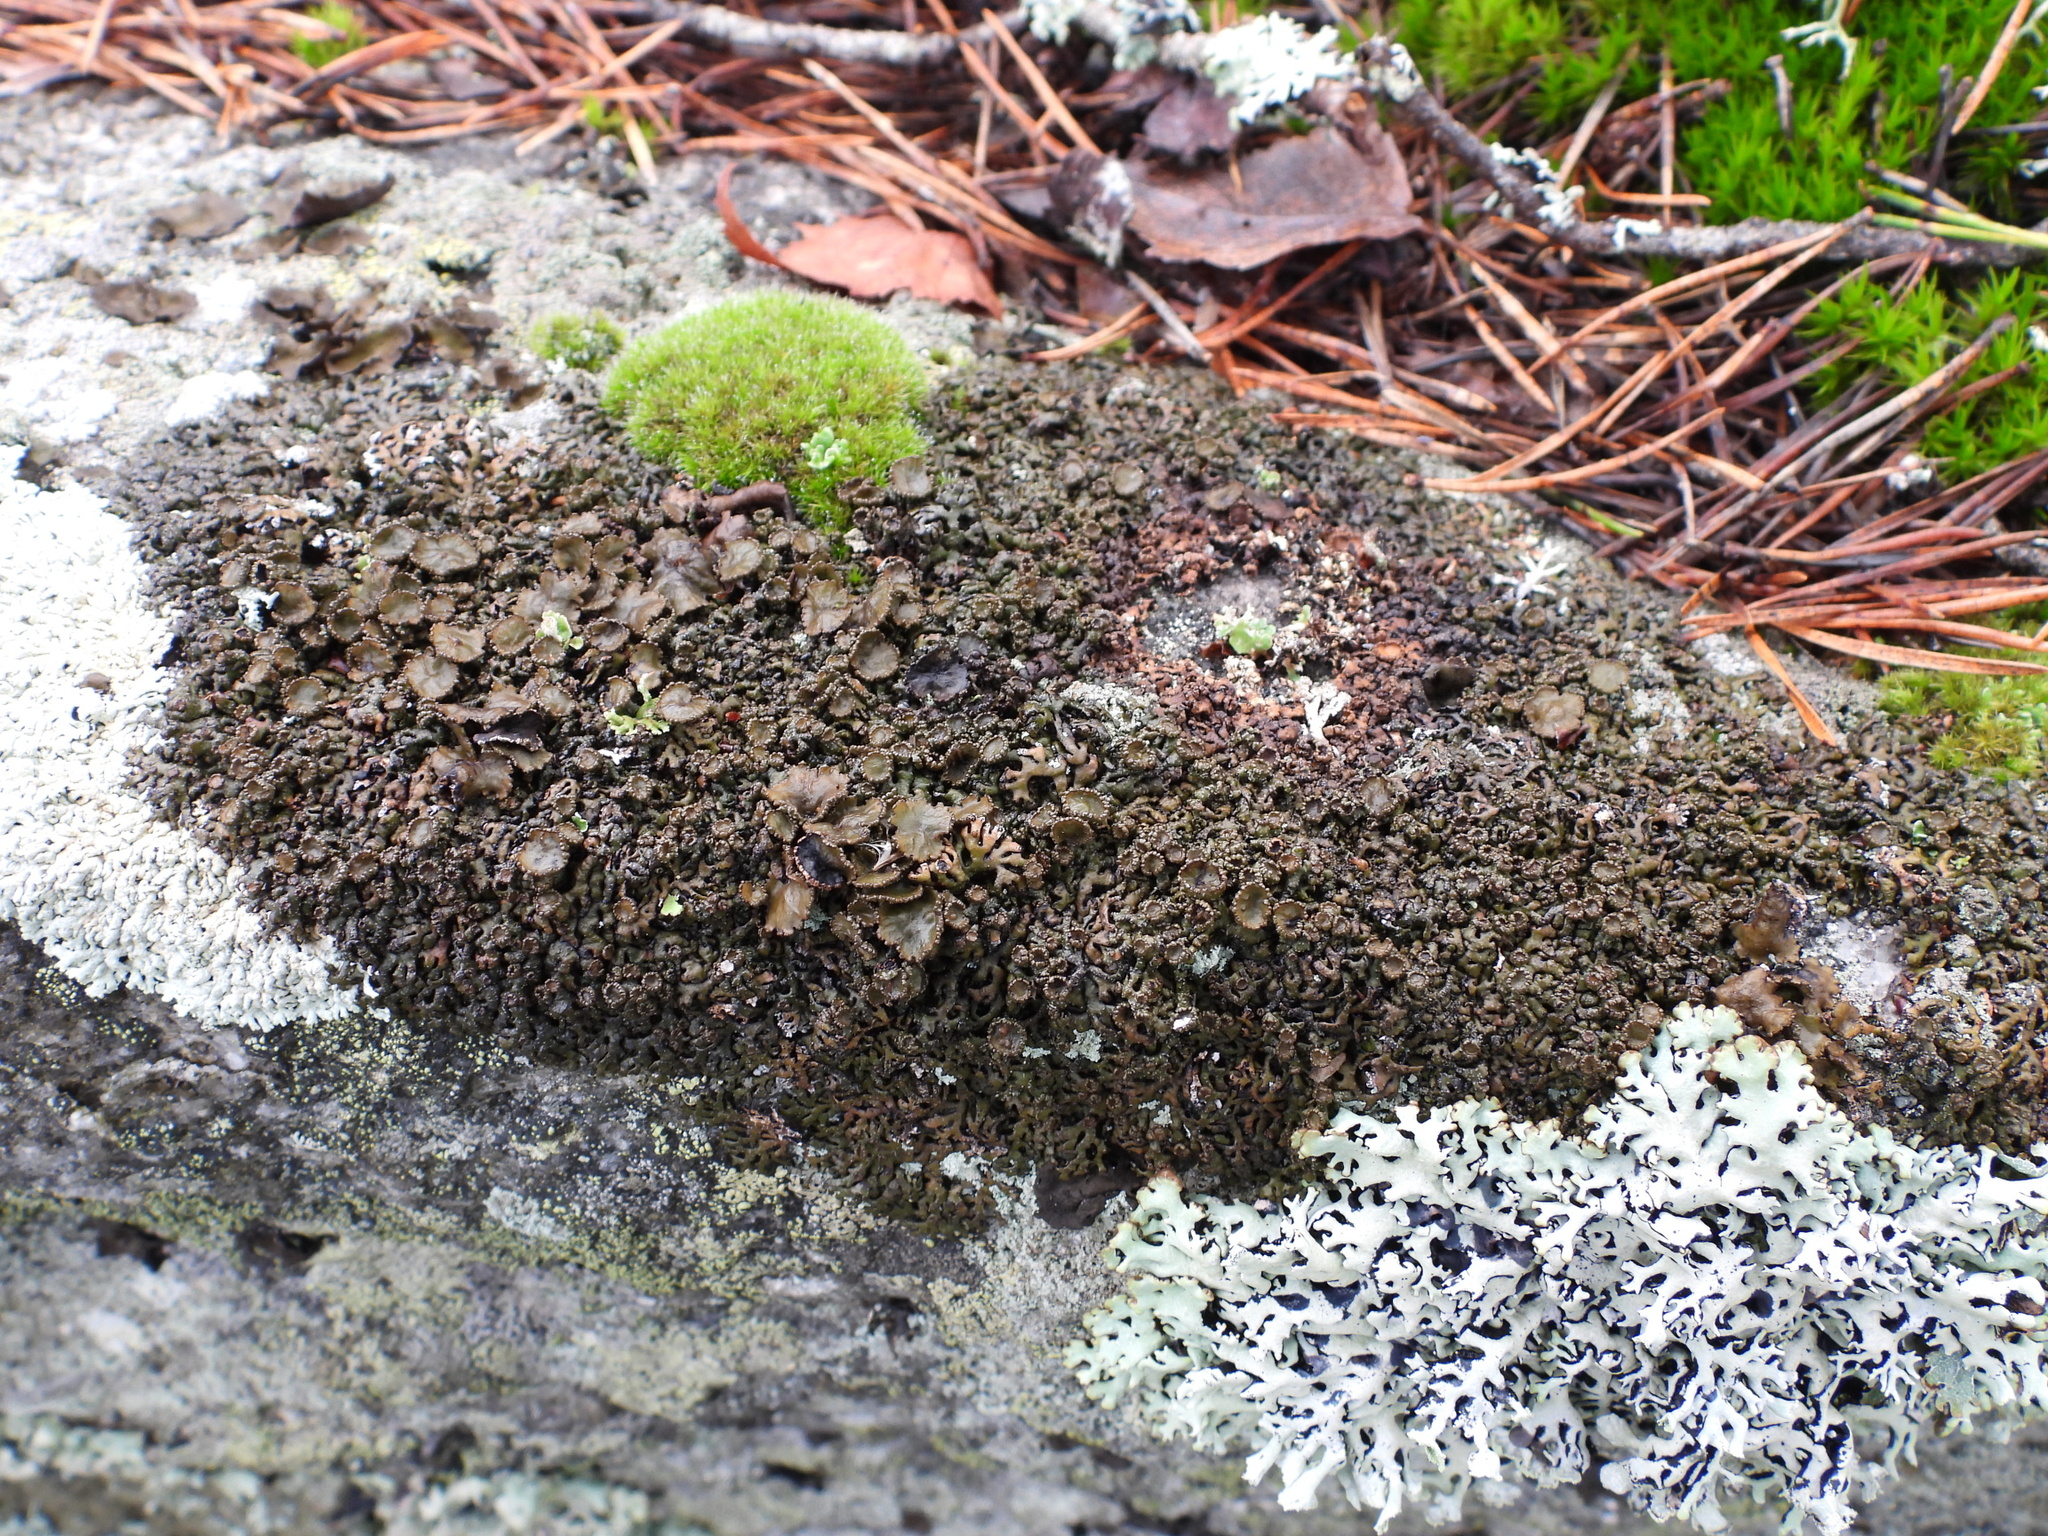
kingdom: Fungi
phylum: Ascomycota
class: Lecanoromycetes
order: Lecanorales
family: Parmeliaceae
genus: Melanelia
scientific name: Melanelia stygia
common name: Alpine camouflage lichen
